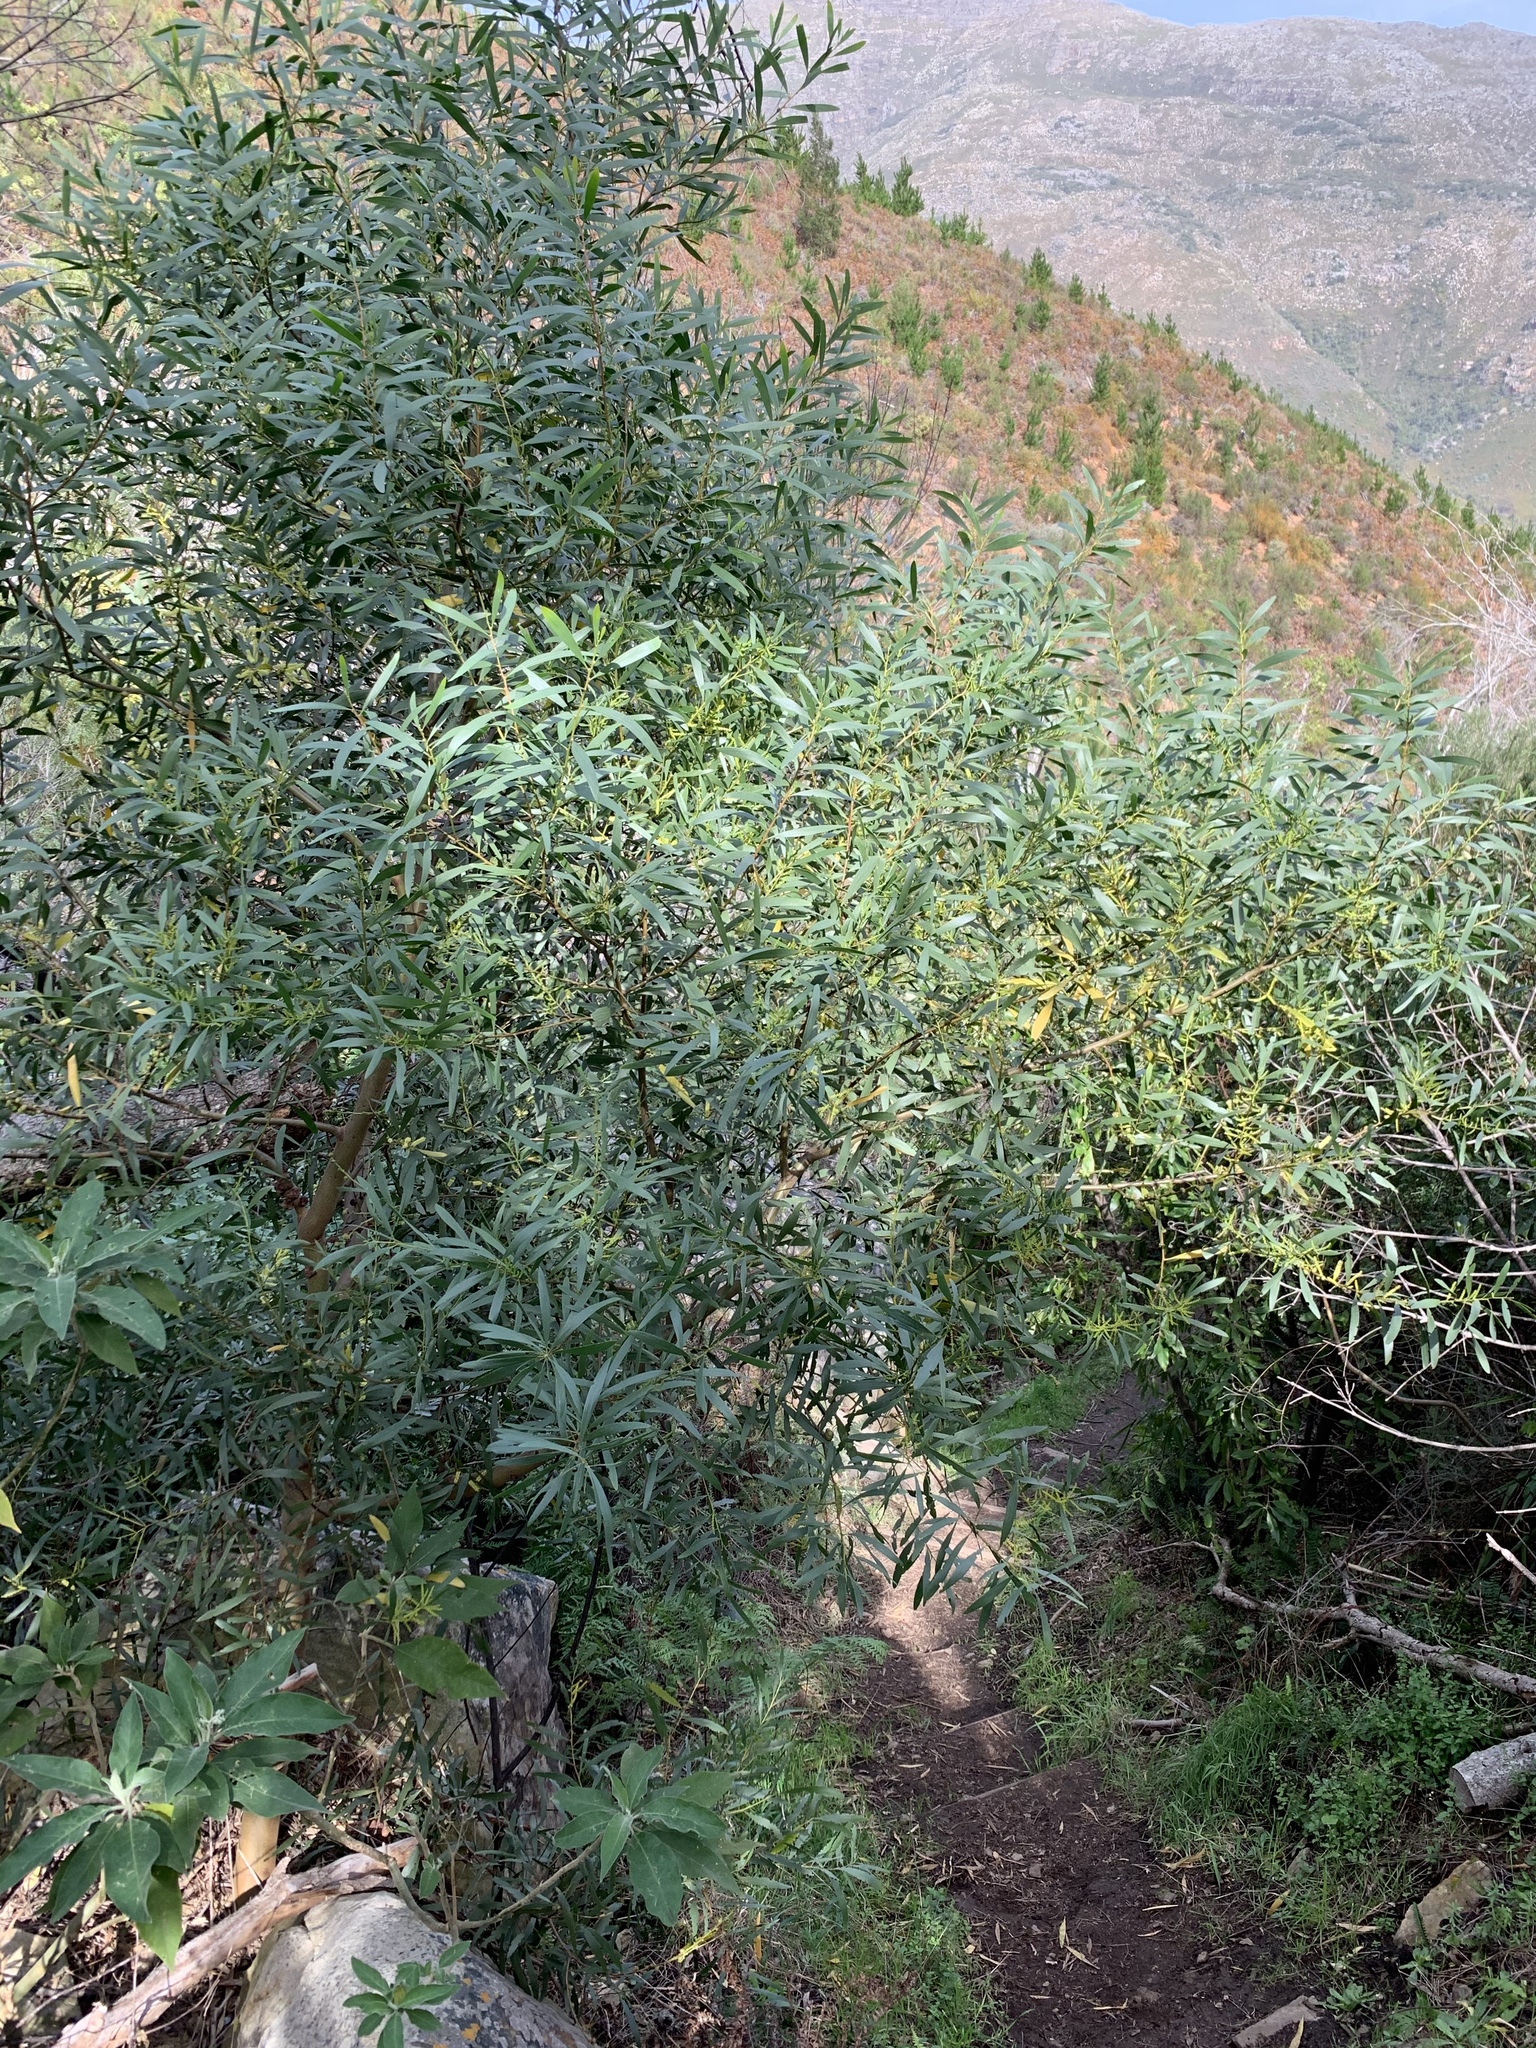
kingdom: Plantae
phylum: Tracheophyta
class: Magnoliopsida
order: Fabales
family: Fabaceae
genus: Acacia
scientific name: Acacia longifolia
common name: Sydney golden wattle
